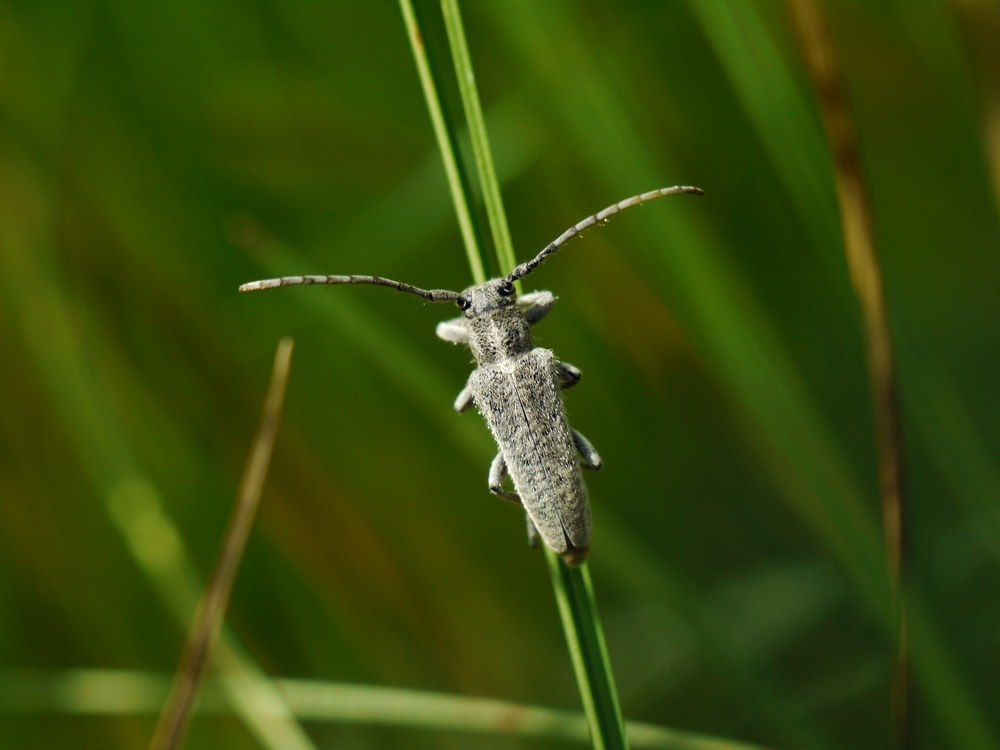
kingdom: Animalia
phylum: Arthropoda
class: Insecta
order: Coleoptera
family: Cerambycidae
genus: Phytoecia
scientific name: Phytoecia hirsutula
